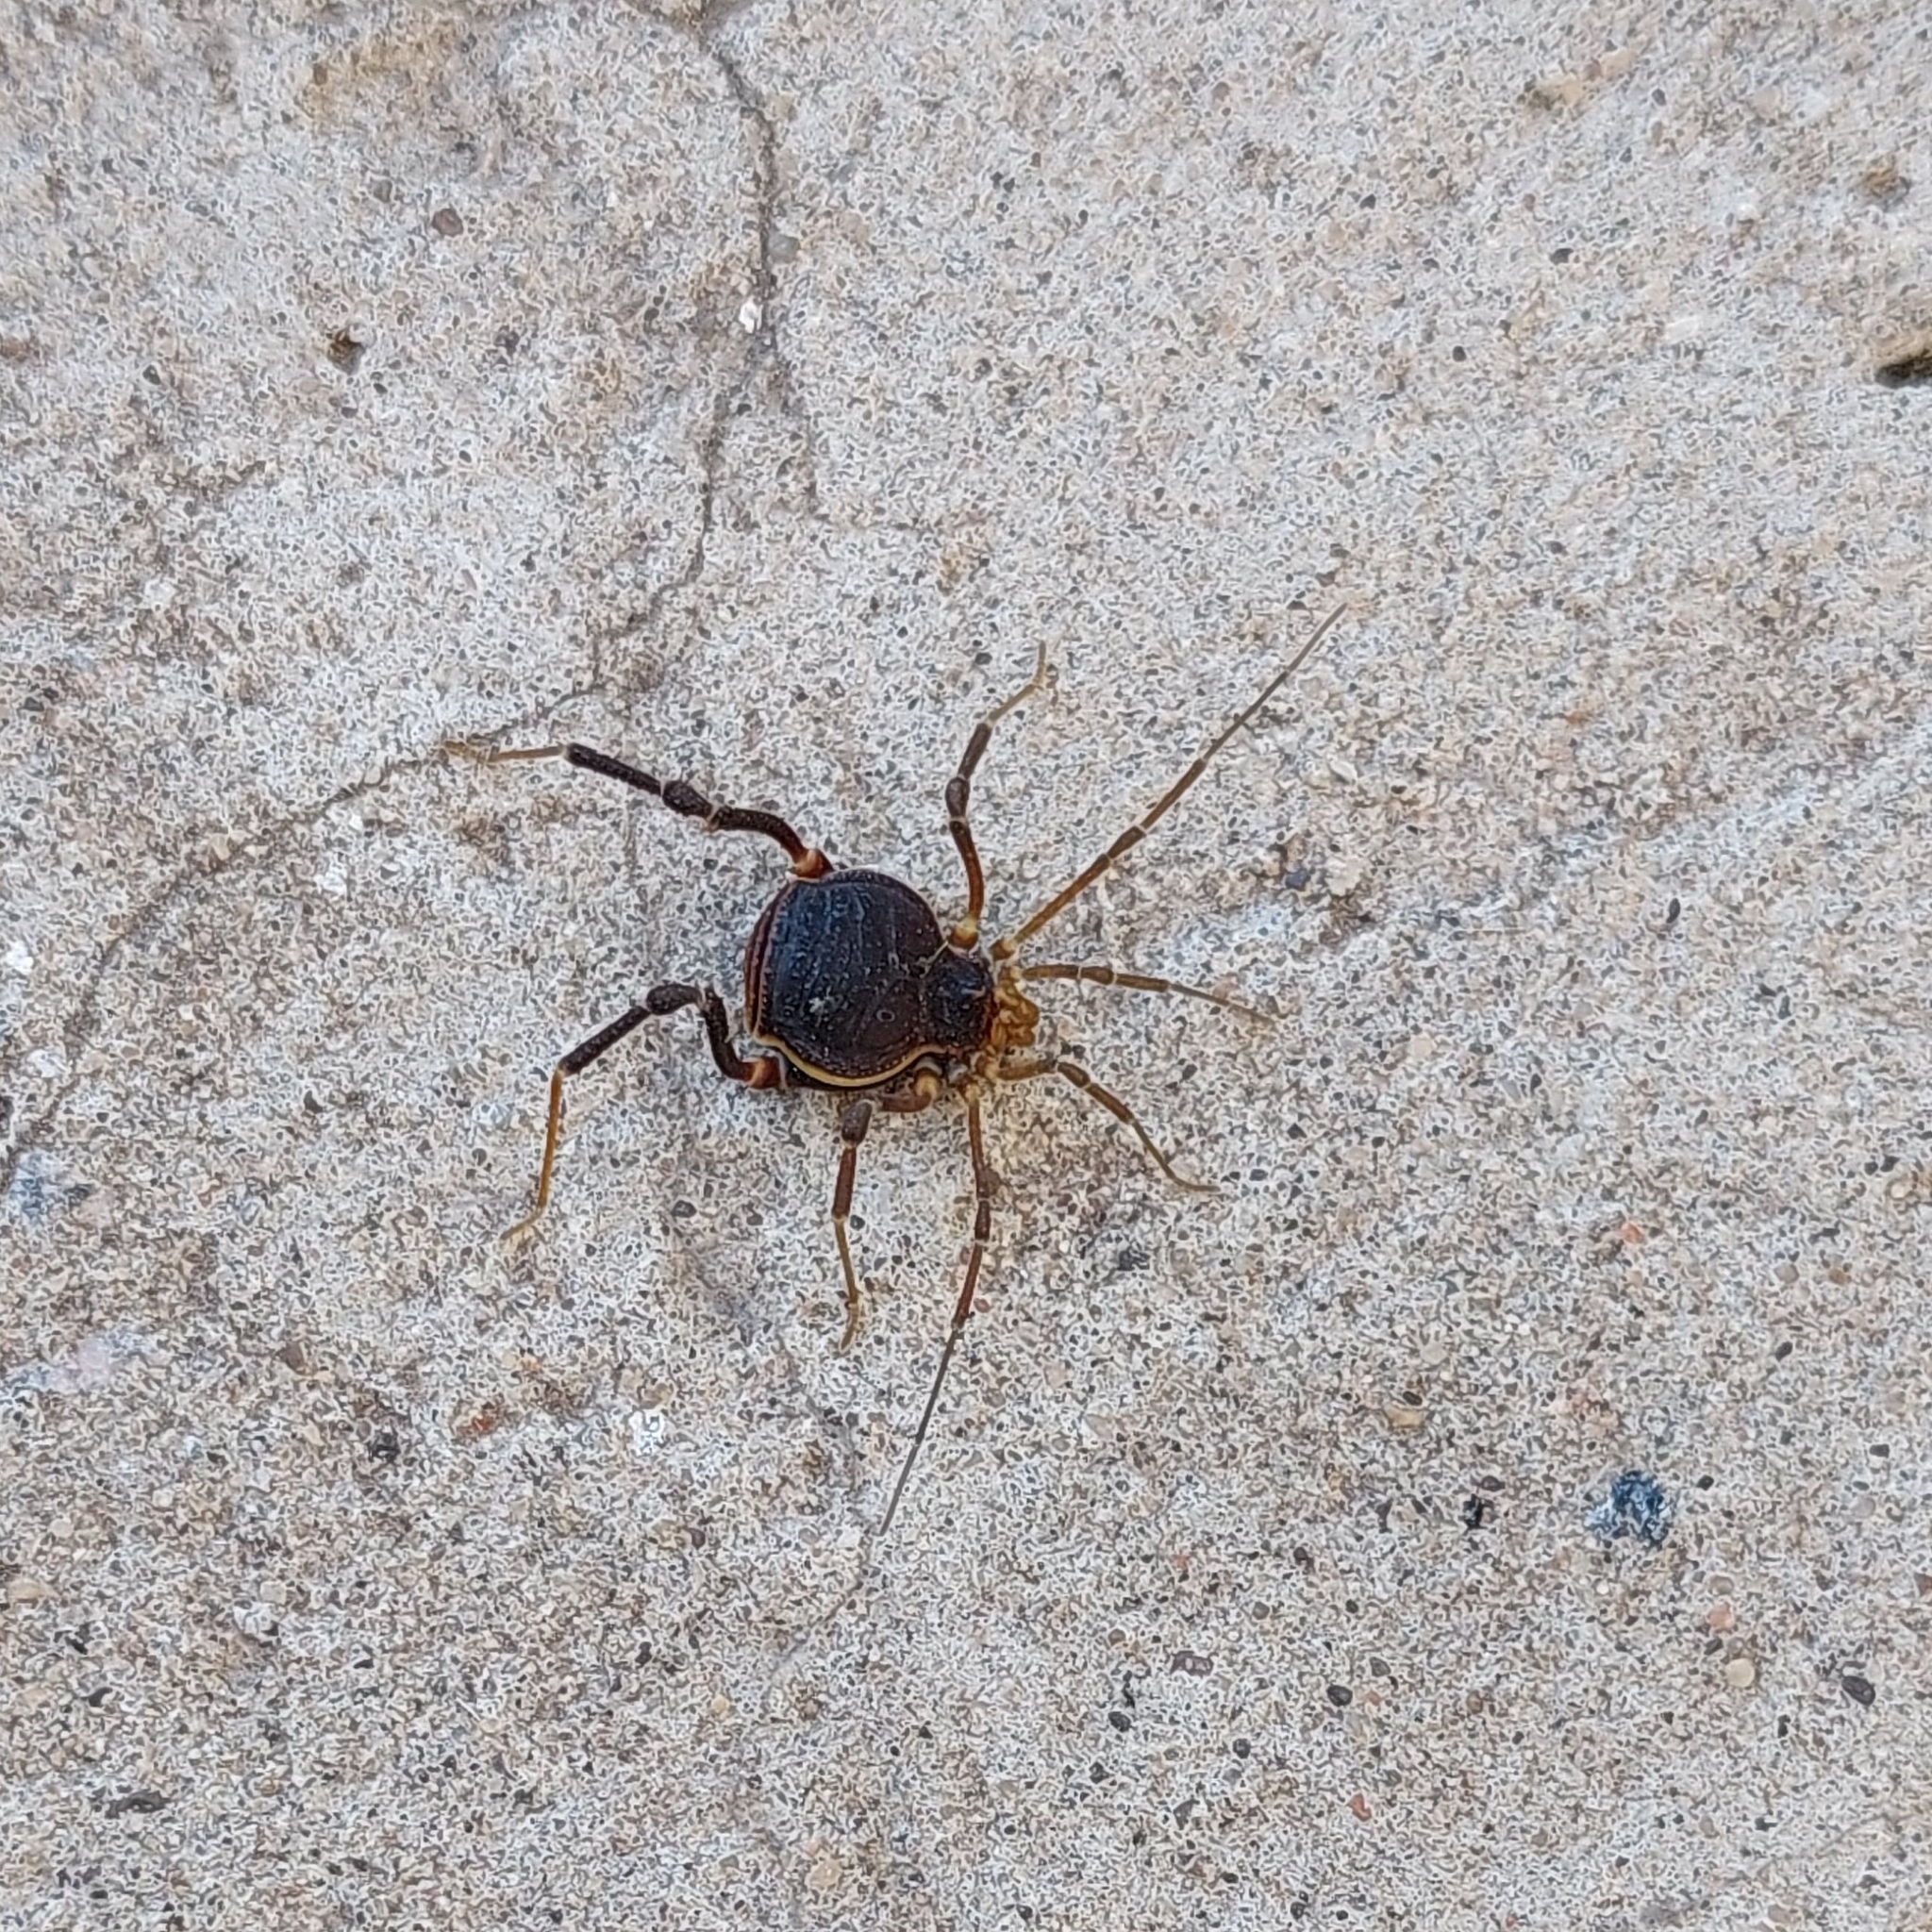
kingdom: Animalia
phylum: Arthropoda
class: Arachnida
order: Opiliones
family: Gonyleptidae
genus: Acanthopachylus
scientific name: Acanthopachylus robustus
